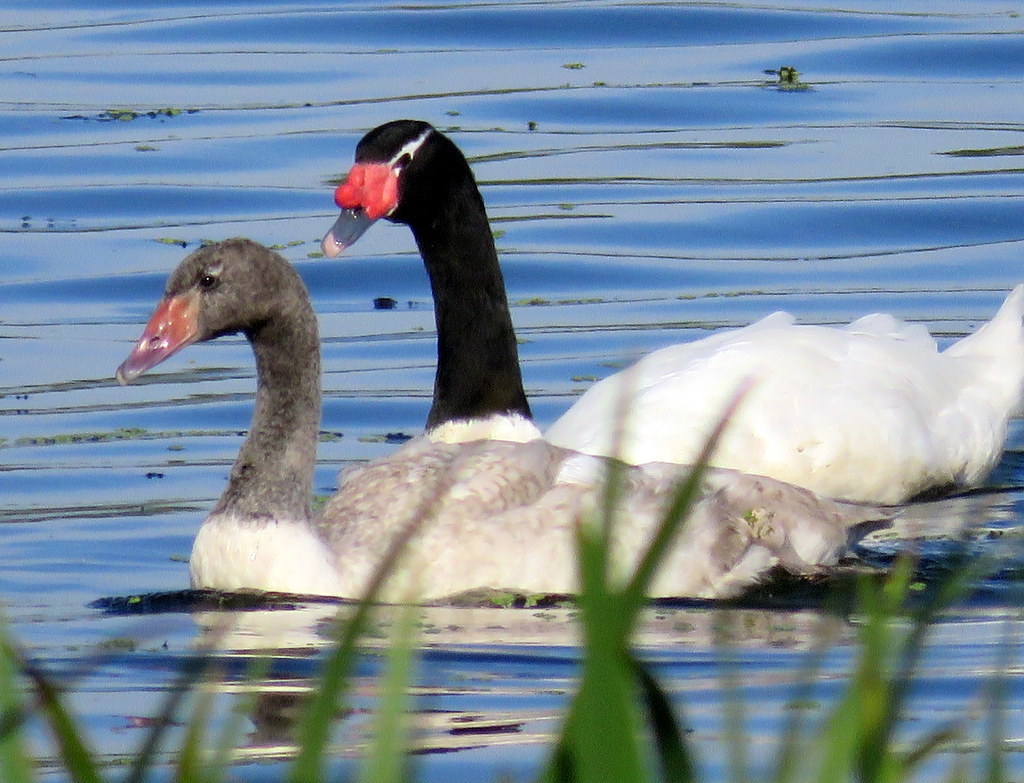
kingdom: Animalia
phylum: Chordata
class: Aves
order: Anseriformes
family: Anatidae
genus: Cygnus
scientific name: Cygnus melancoryphus
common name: Black-necked swan
